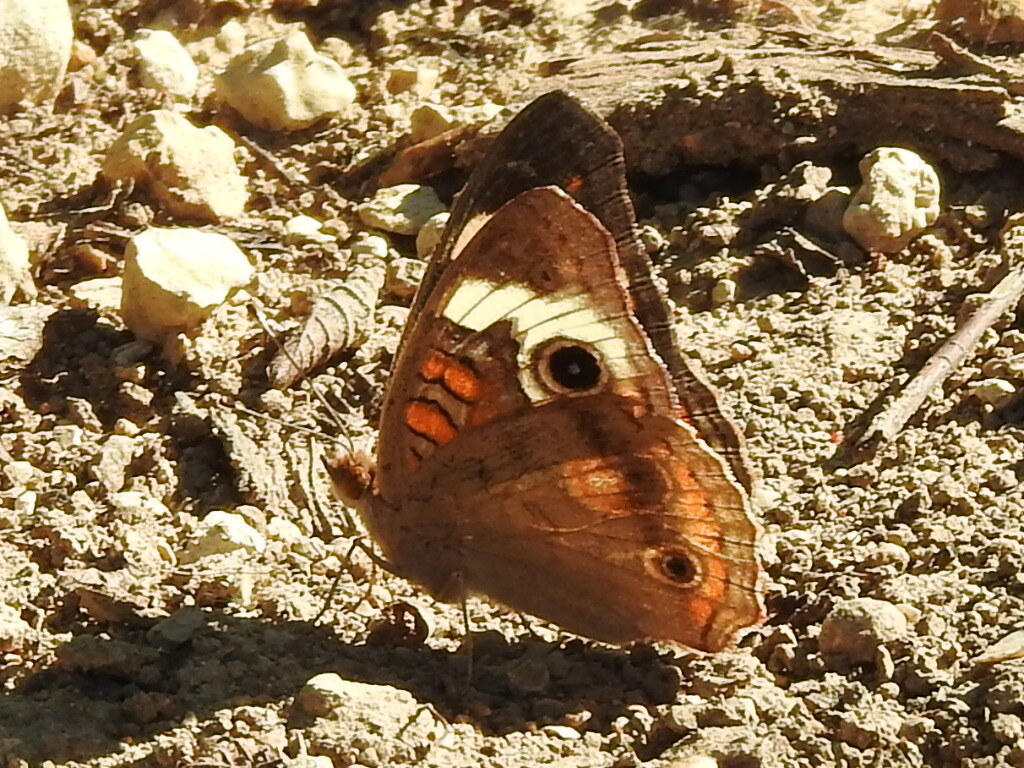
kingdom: Animalia
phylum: Arthropoda
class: Insecta
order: Lepidoptera
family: Nymphalidae
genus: Junonia
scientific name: Junonia coenia
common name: Common buckeye
